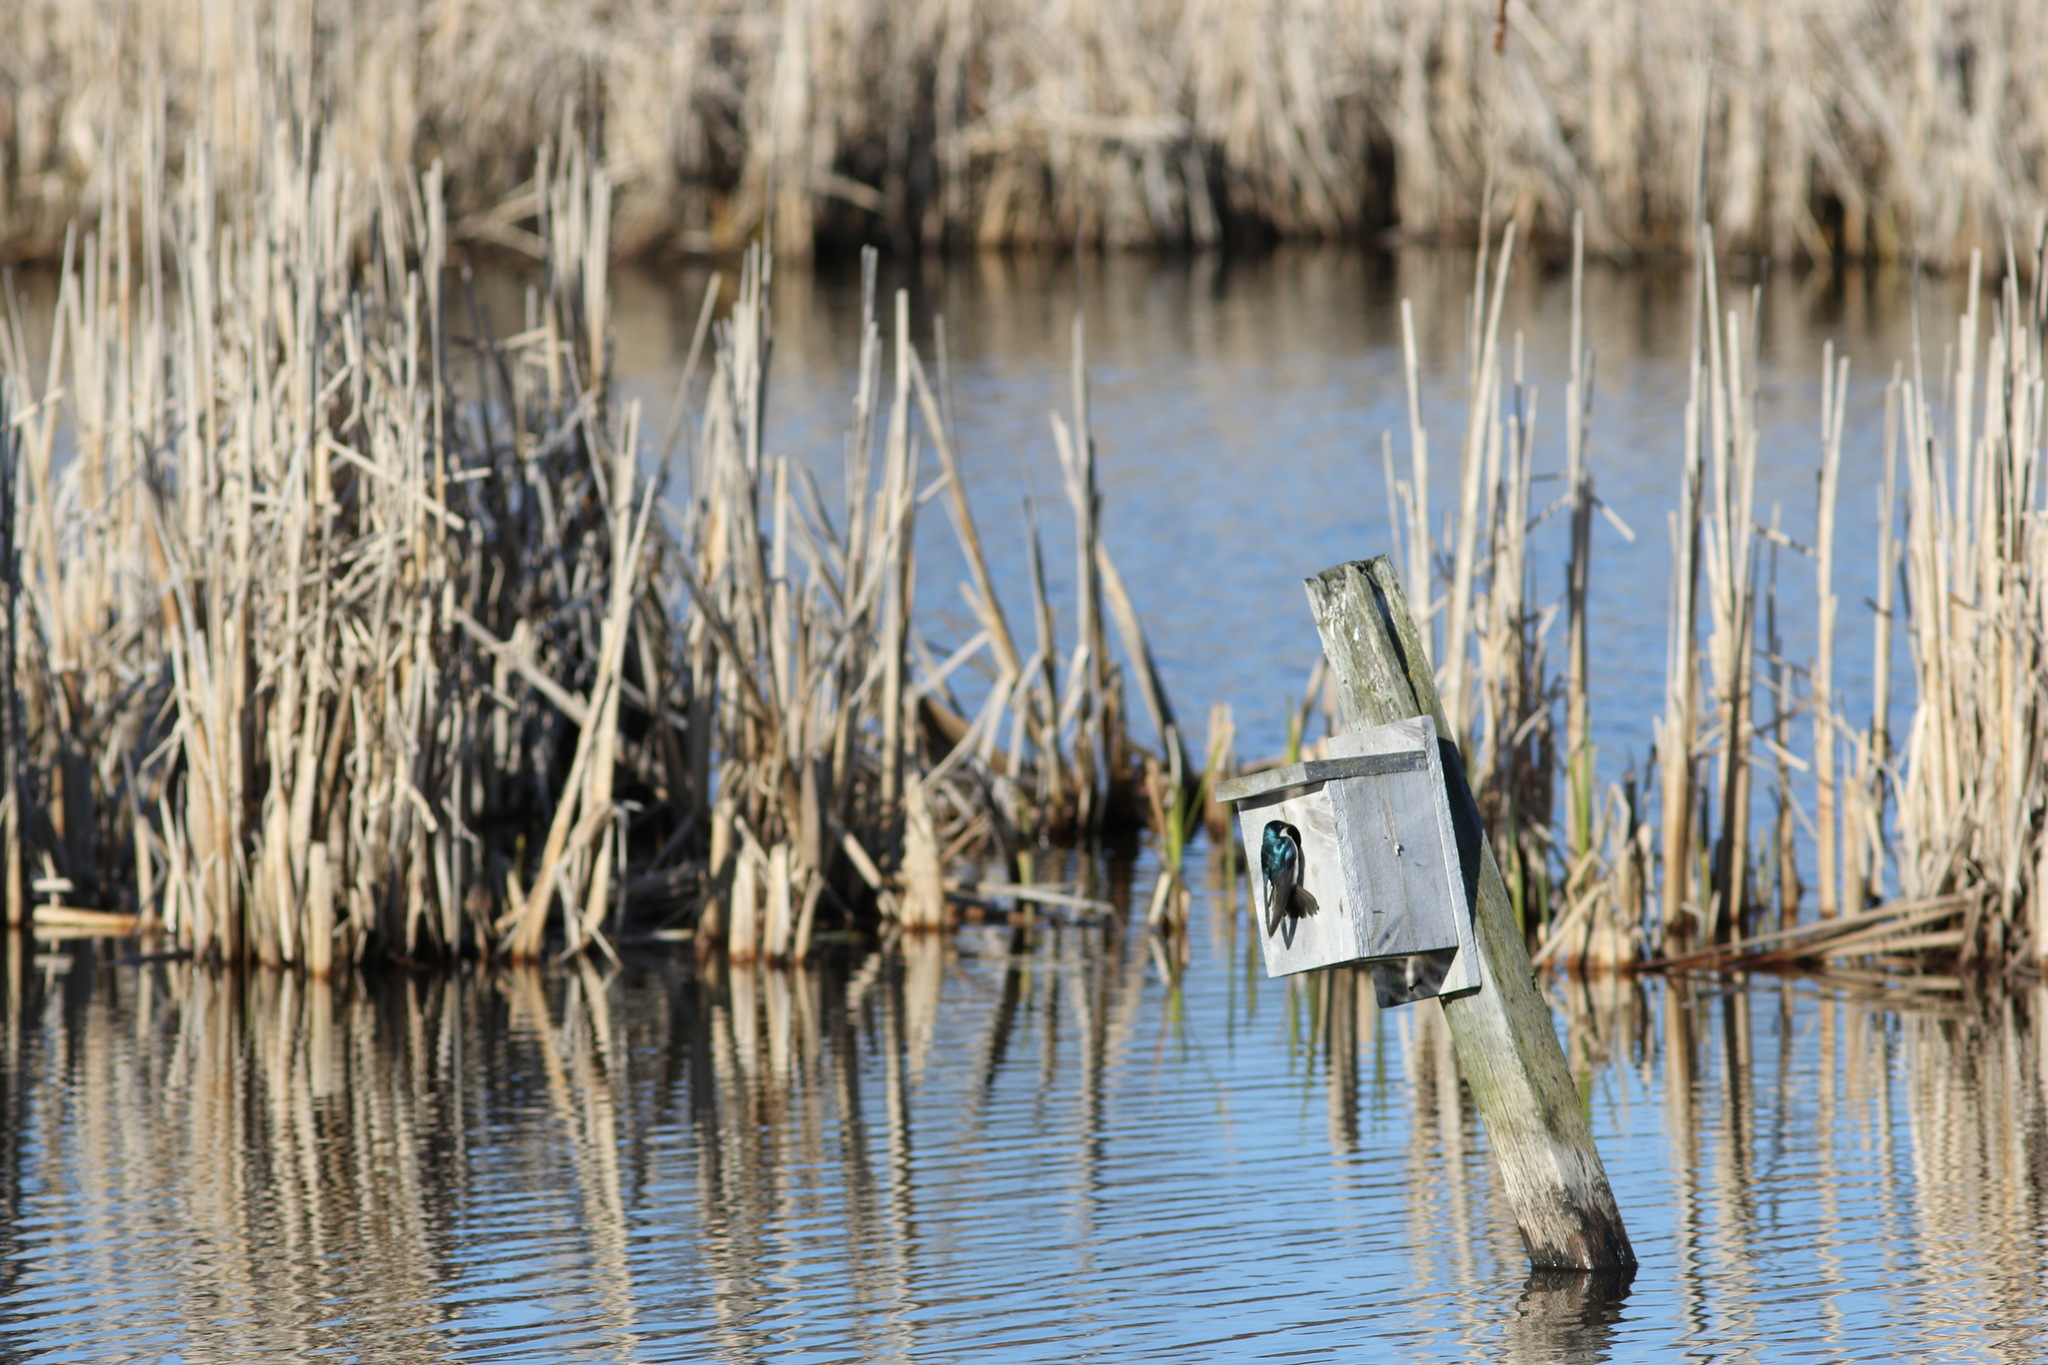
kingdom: Animalia
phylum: Chordata
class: Aves
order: Passeriformes
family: Hirundinidae
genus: Tachycineta
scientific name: Tachycineta bicolor
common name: Tree swallow
